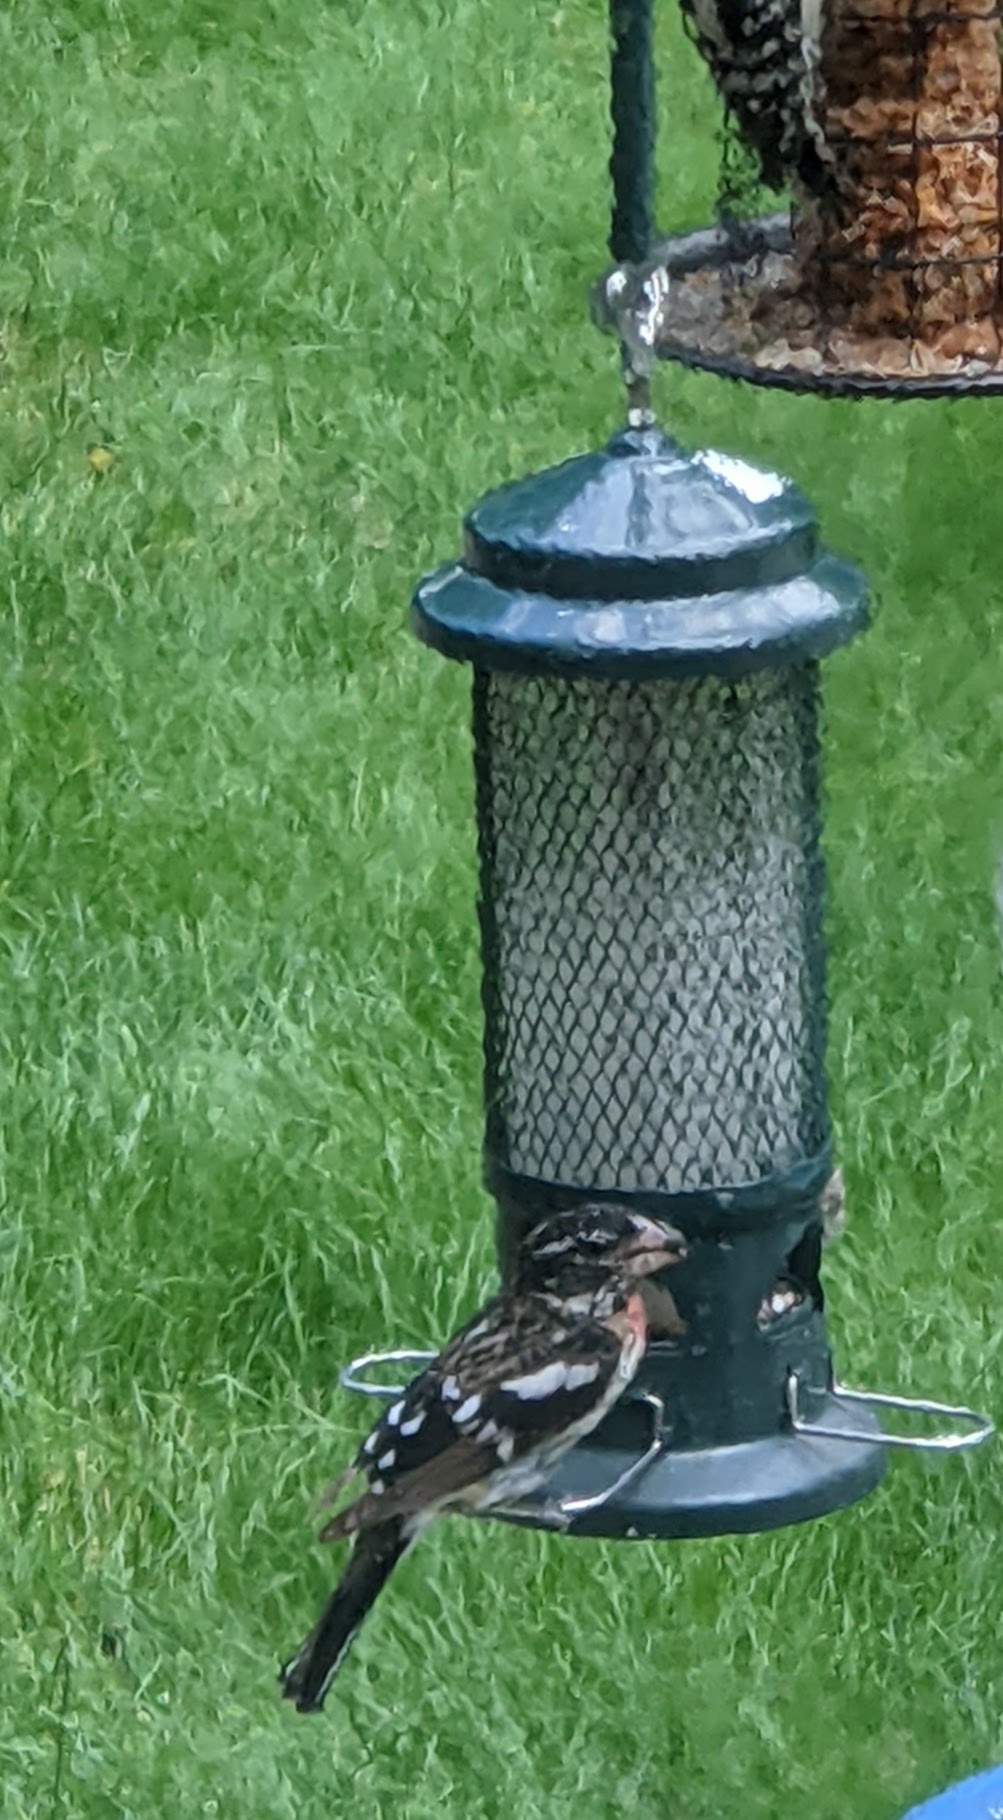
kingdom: Animalia
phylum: Chordata
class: Aves
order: Passeriformes
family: Cardinalidae
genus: Pheucticus
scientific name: Pheucticus ludovicianus
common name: Rose-breasted grosbeak
